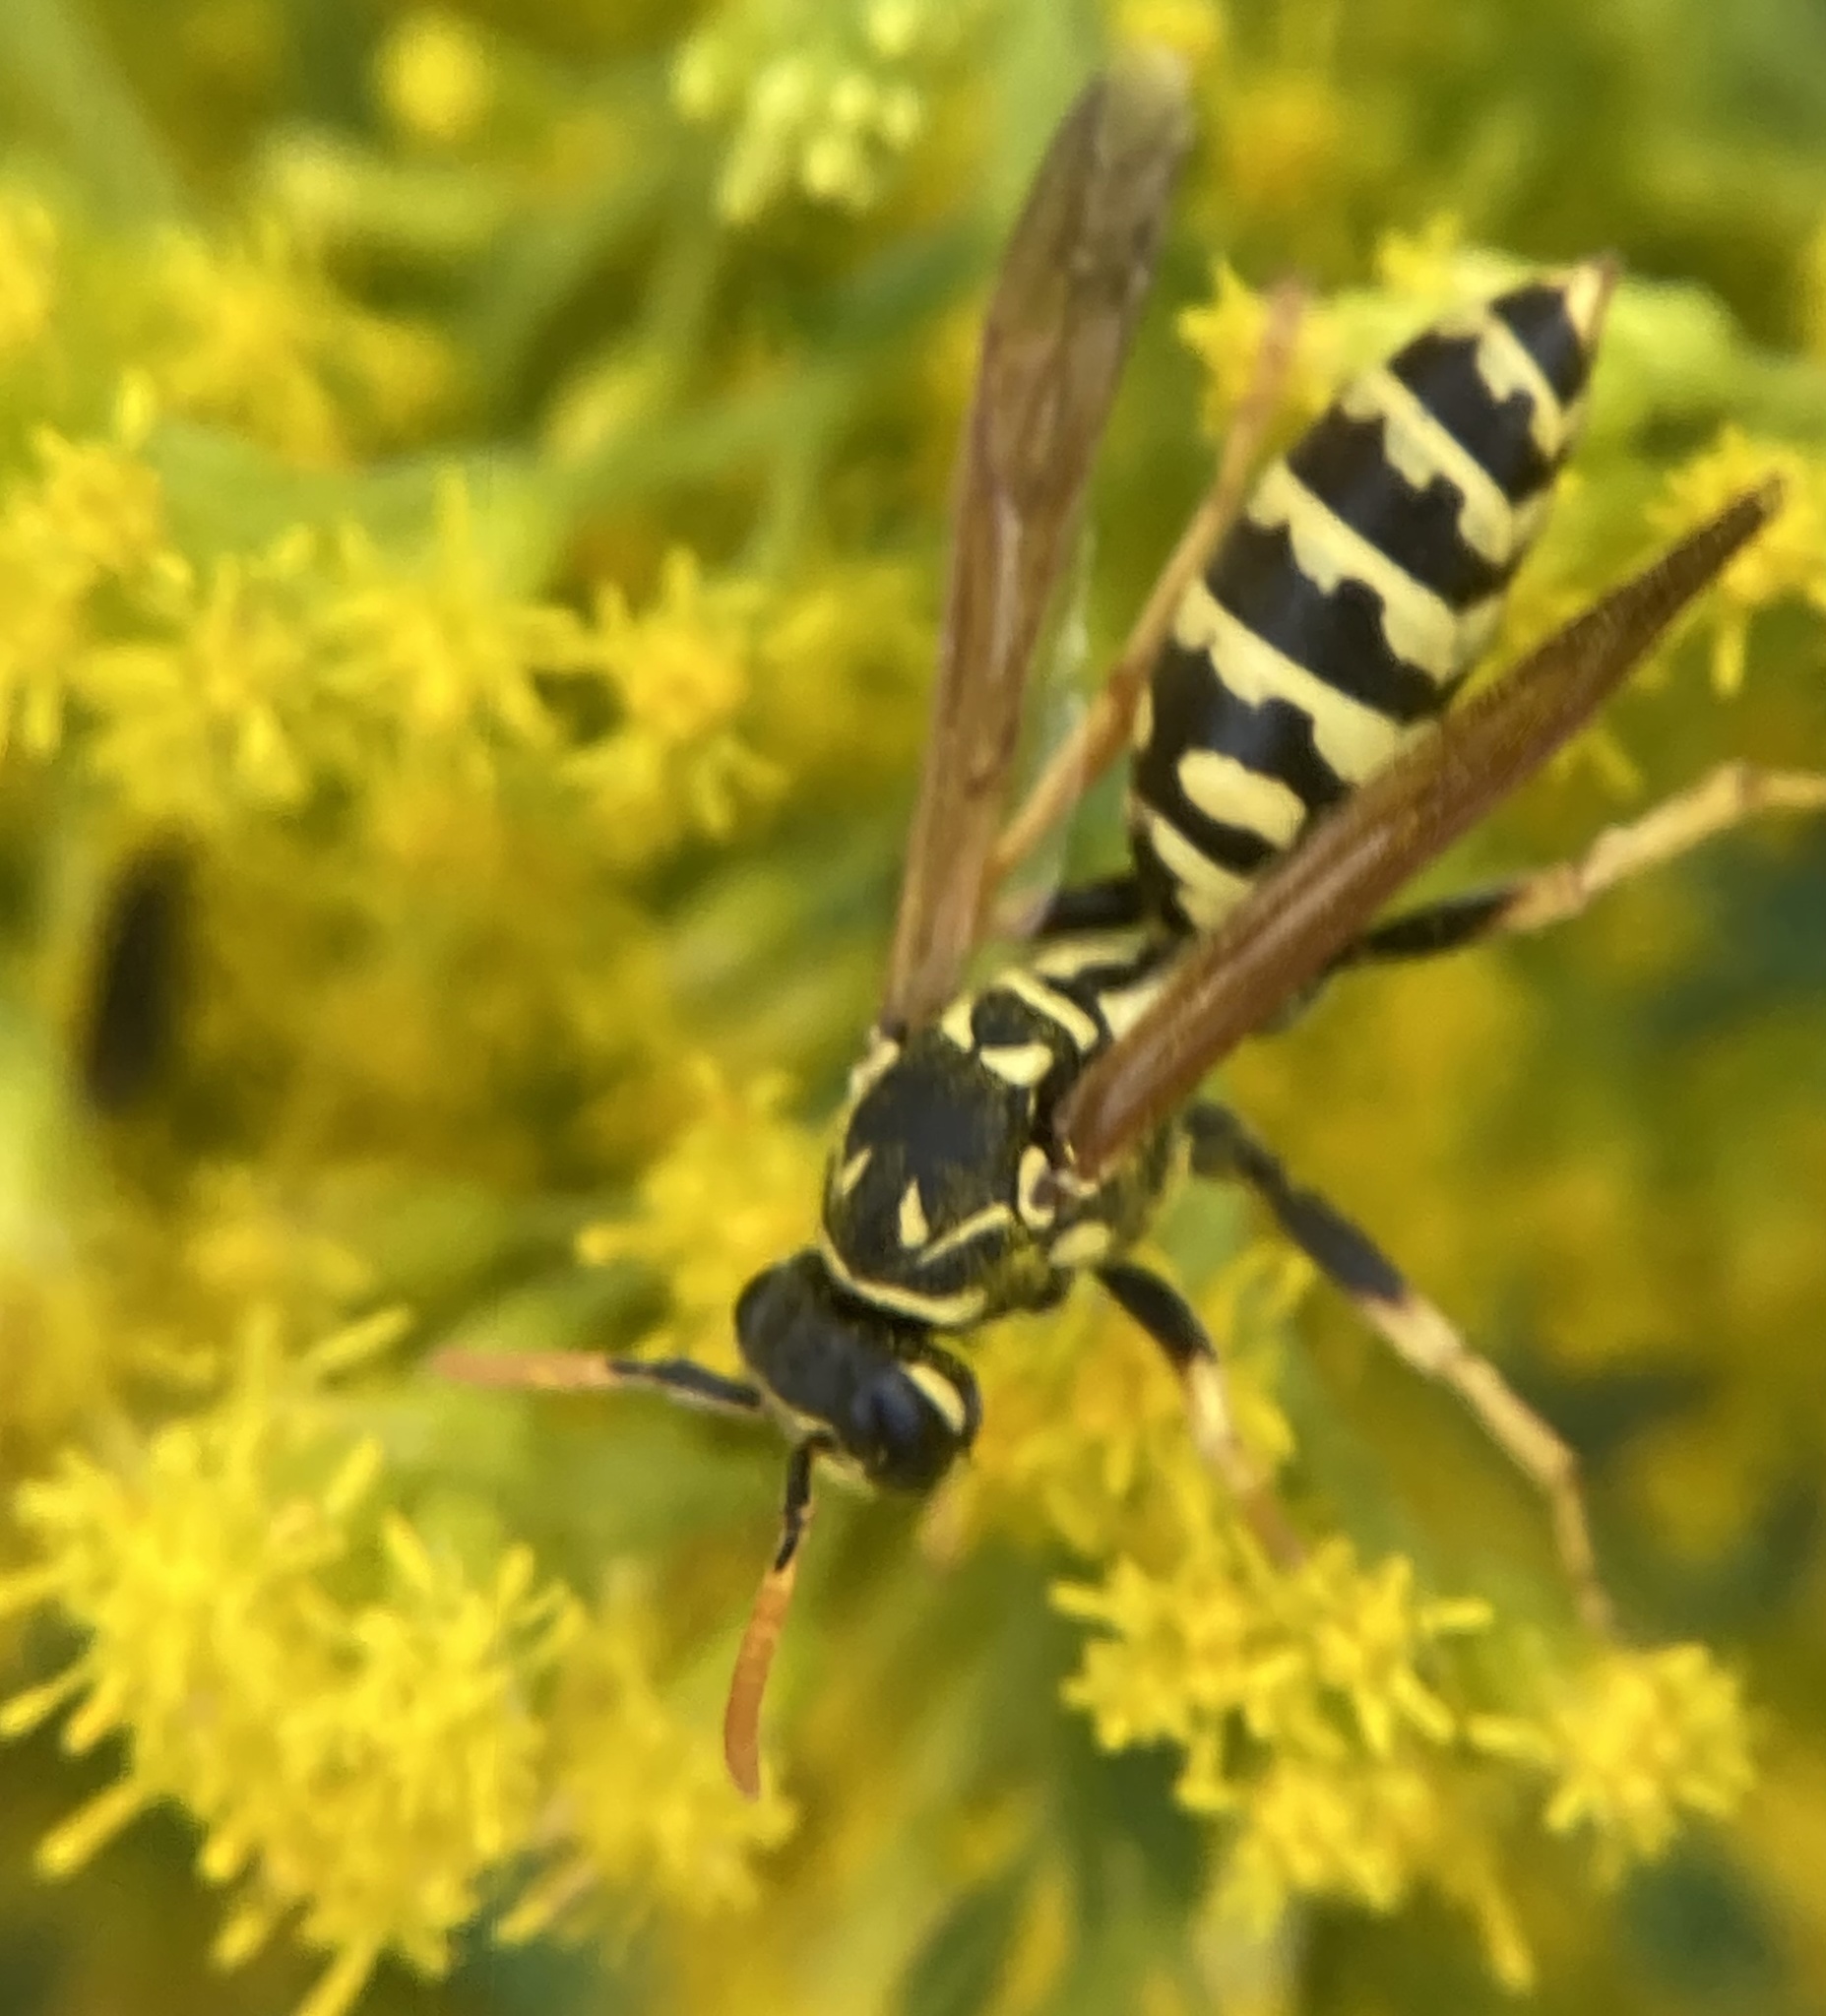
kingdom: Animalia
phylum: Arthropoda
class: Insecta
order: Hymenoptera
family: Eumenidae
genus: Polistes
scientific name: Polistes dominula
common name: Paper wasp
